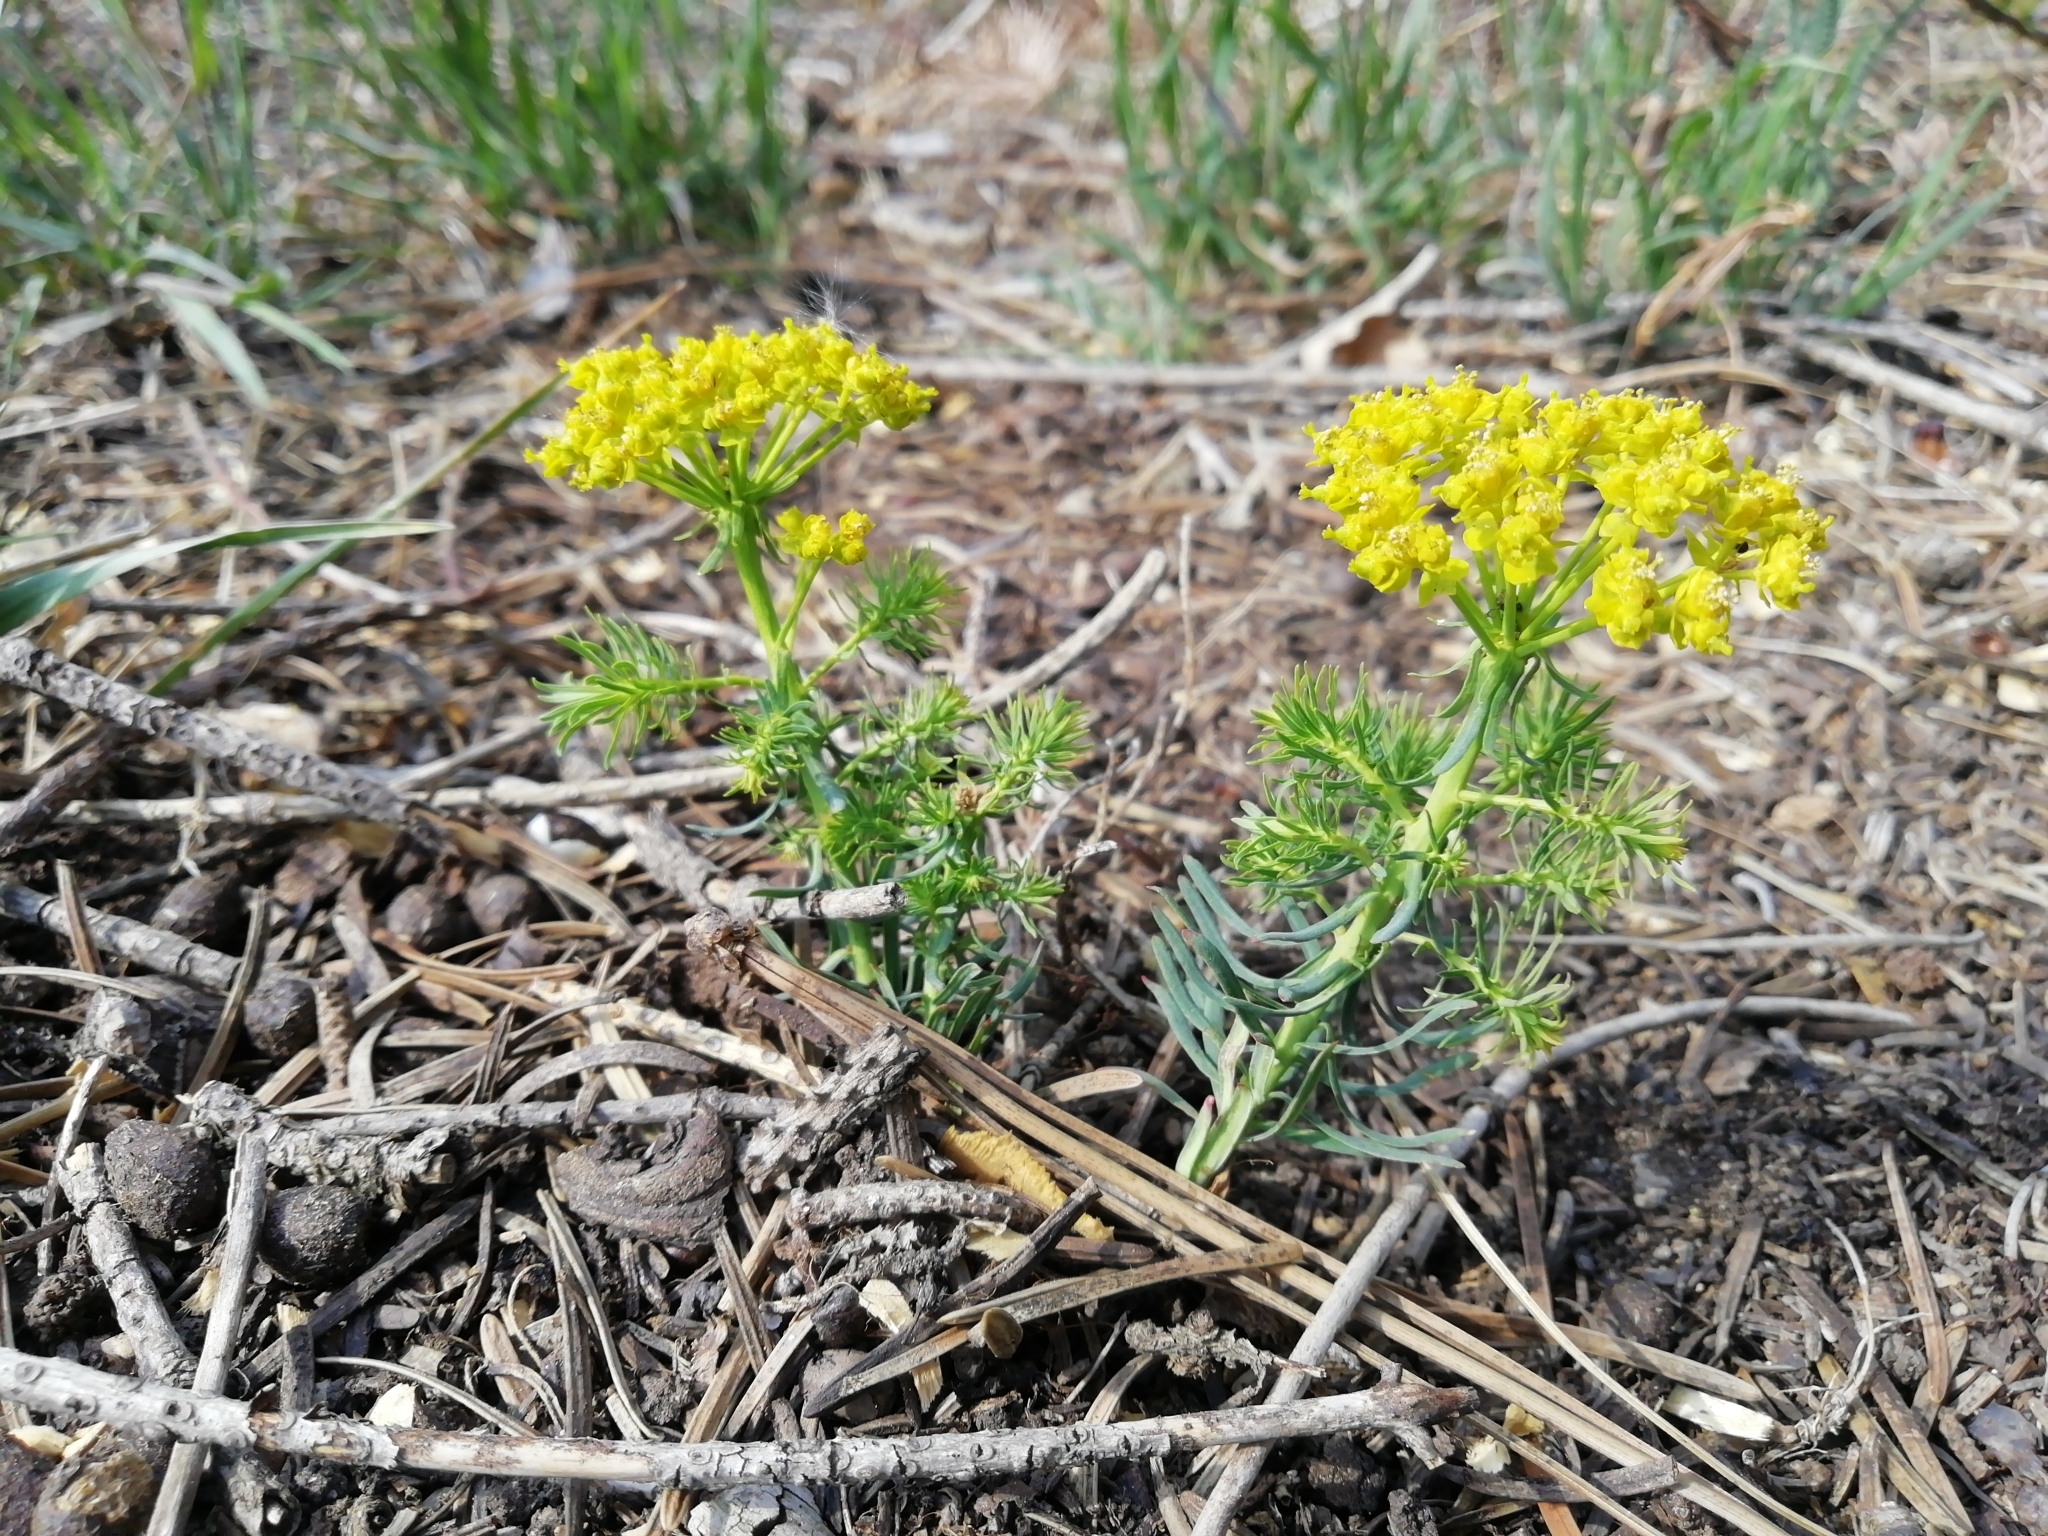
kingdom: Plantae
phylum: Tracheophyta
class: Magnoliopsida
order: Malpighiales
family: Euphorbiaceae
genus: Euphorbia
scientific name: Euphorbia cyparissias
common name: Cypress spurge
